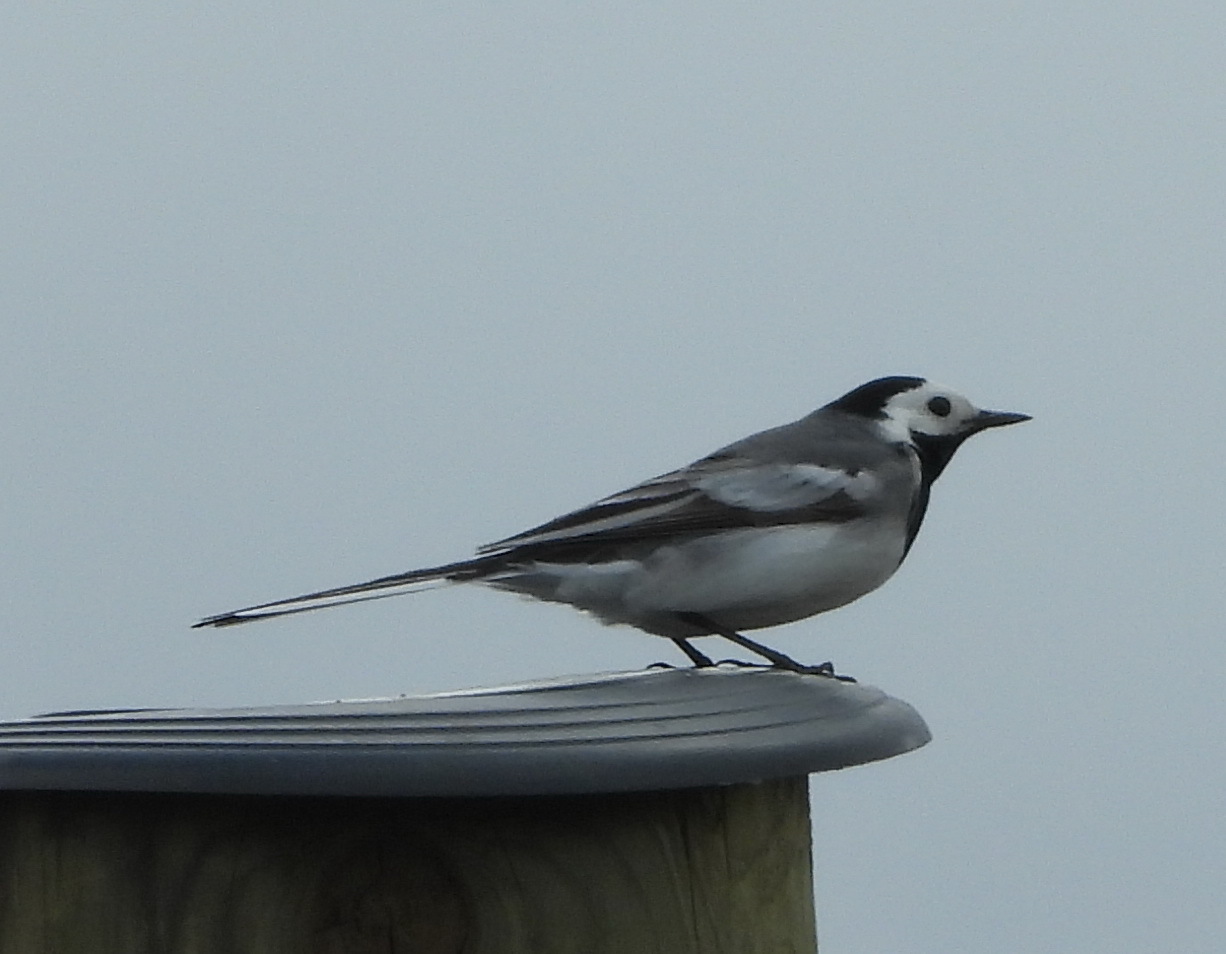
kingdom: Animalia
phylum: Chordata
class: Aves
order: Passeriformes
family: Motacillidae
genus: Motacilla
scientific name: Motacilla alba
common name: White wagtail
